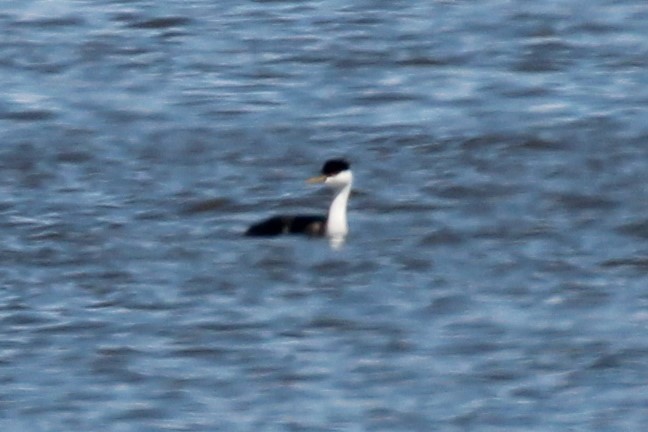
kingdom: Animalia
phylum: Chordata
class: Aves
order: Podicipediformes
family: Podicipedidae
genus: Aechmophorus
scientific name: Aechmophorus occidentalis
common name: Western grebe
